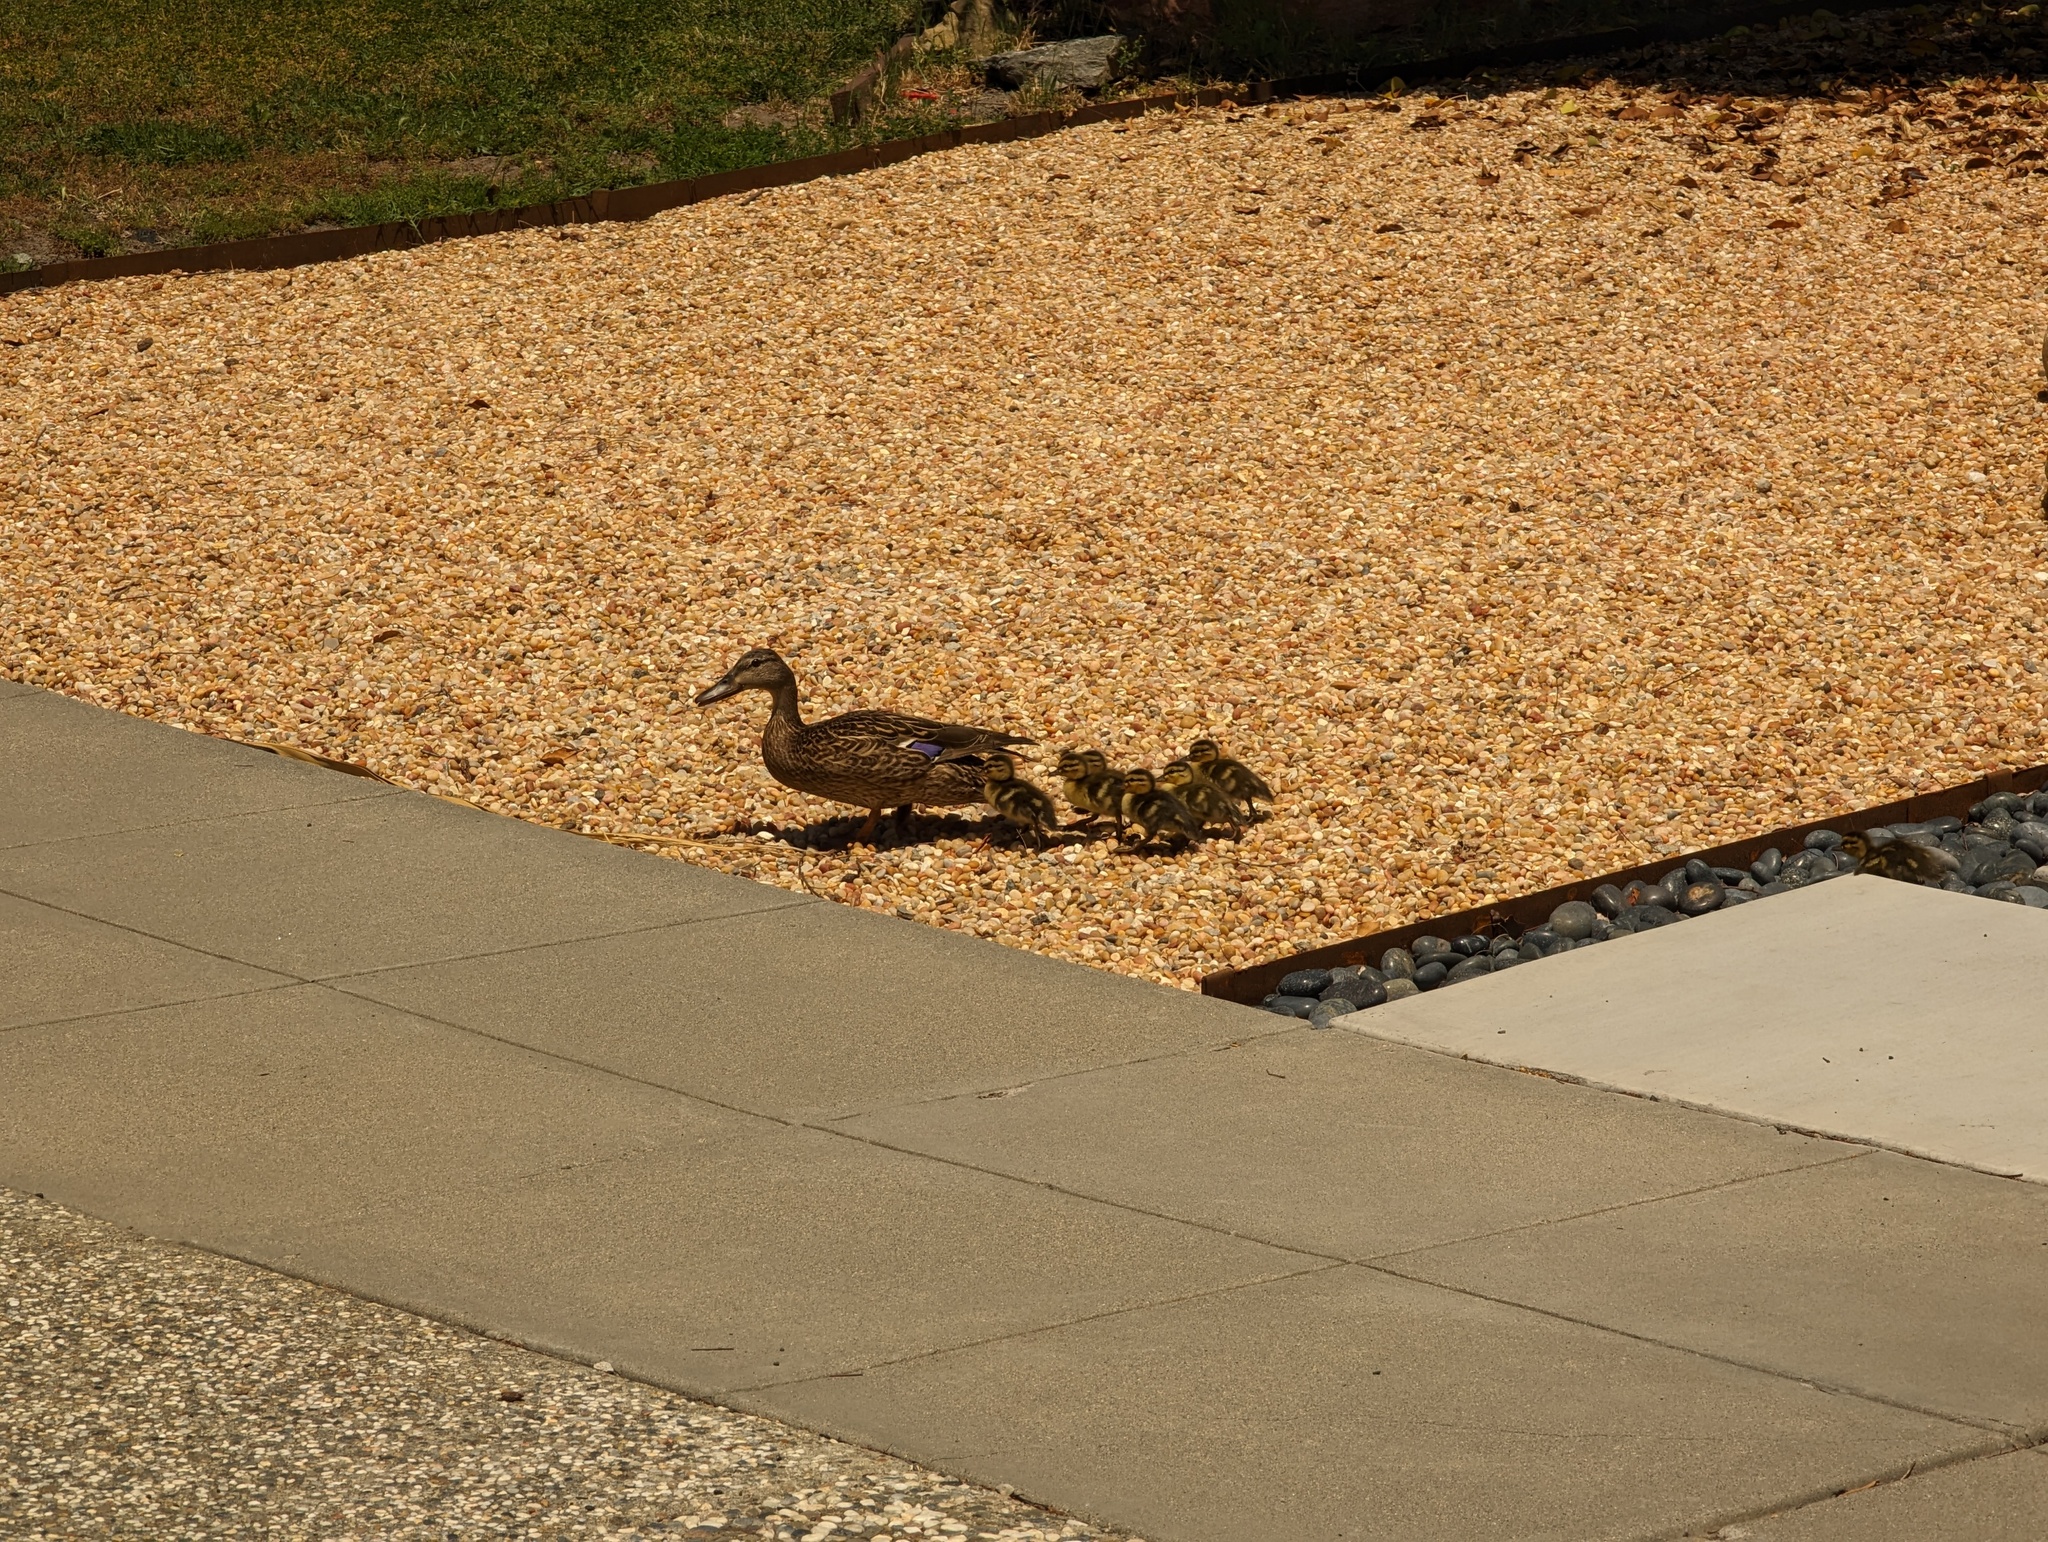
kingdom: Animalia
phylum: Chordata
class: Aves
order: Anseriformes
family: Anatidae
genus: Anas
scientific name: Anas platyrhynchos
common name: Mallard
